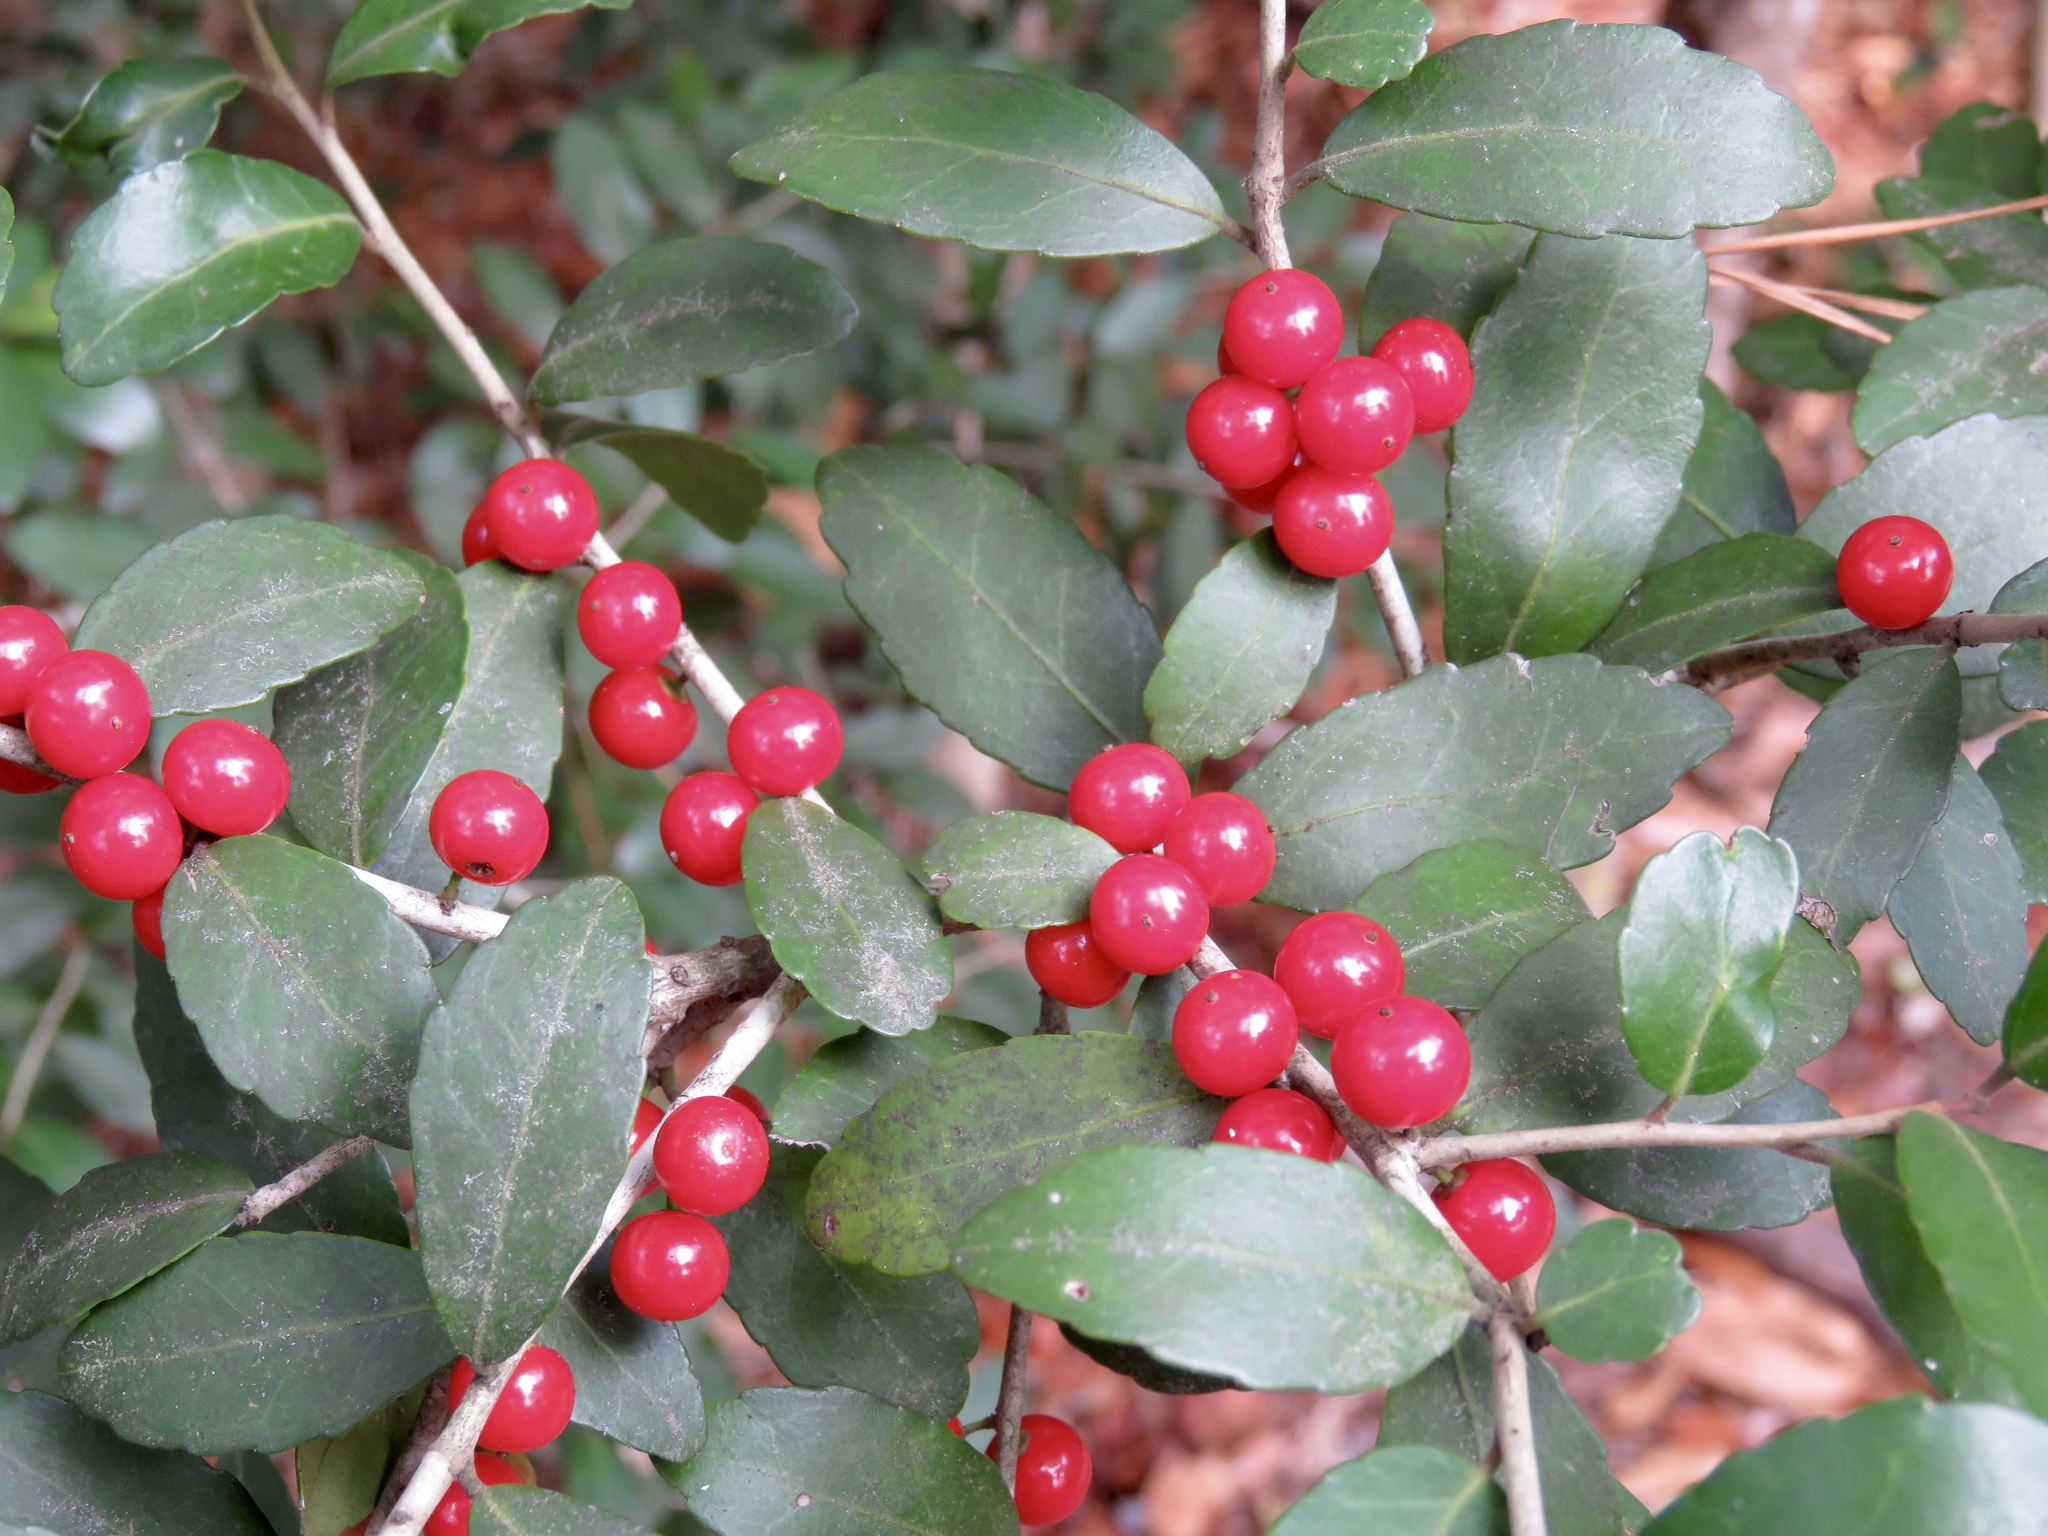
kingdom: Plantae
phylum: Tracheophyta
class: Magnoliopsida
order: Aquifoliales
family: Aquifoliaceae
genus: Ilex
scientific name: Ilex vomitoria
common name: Yaupon holly
